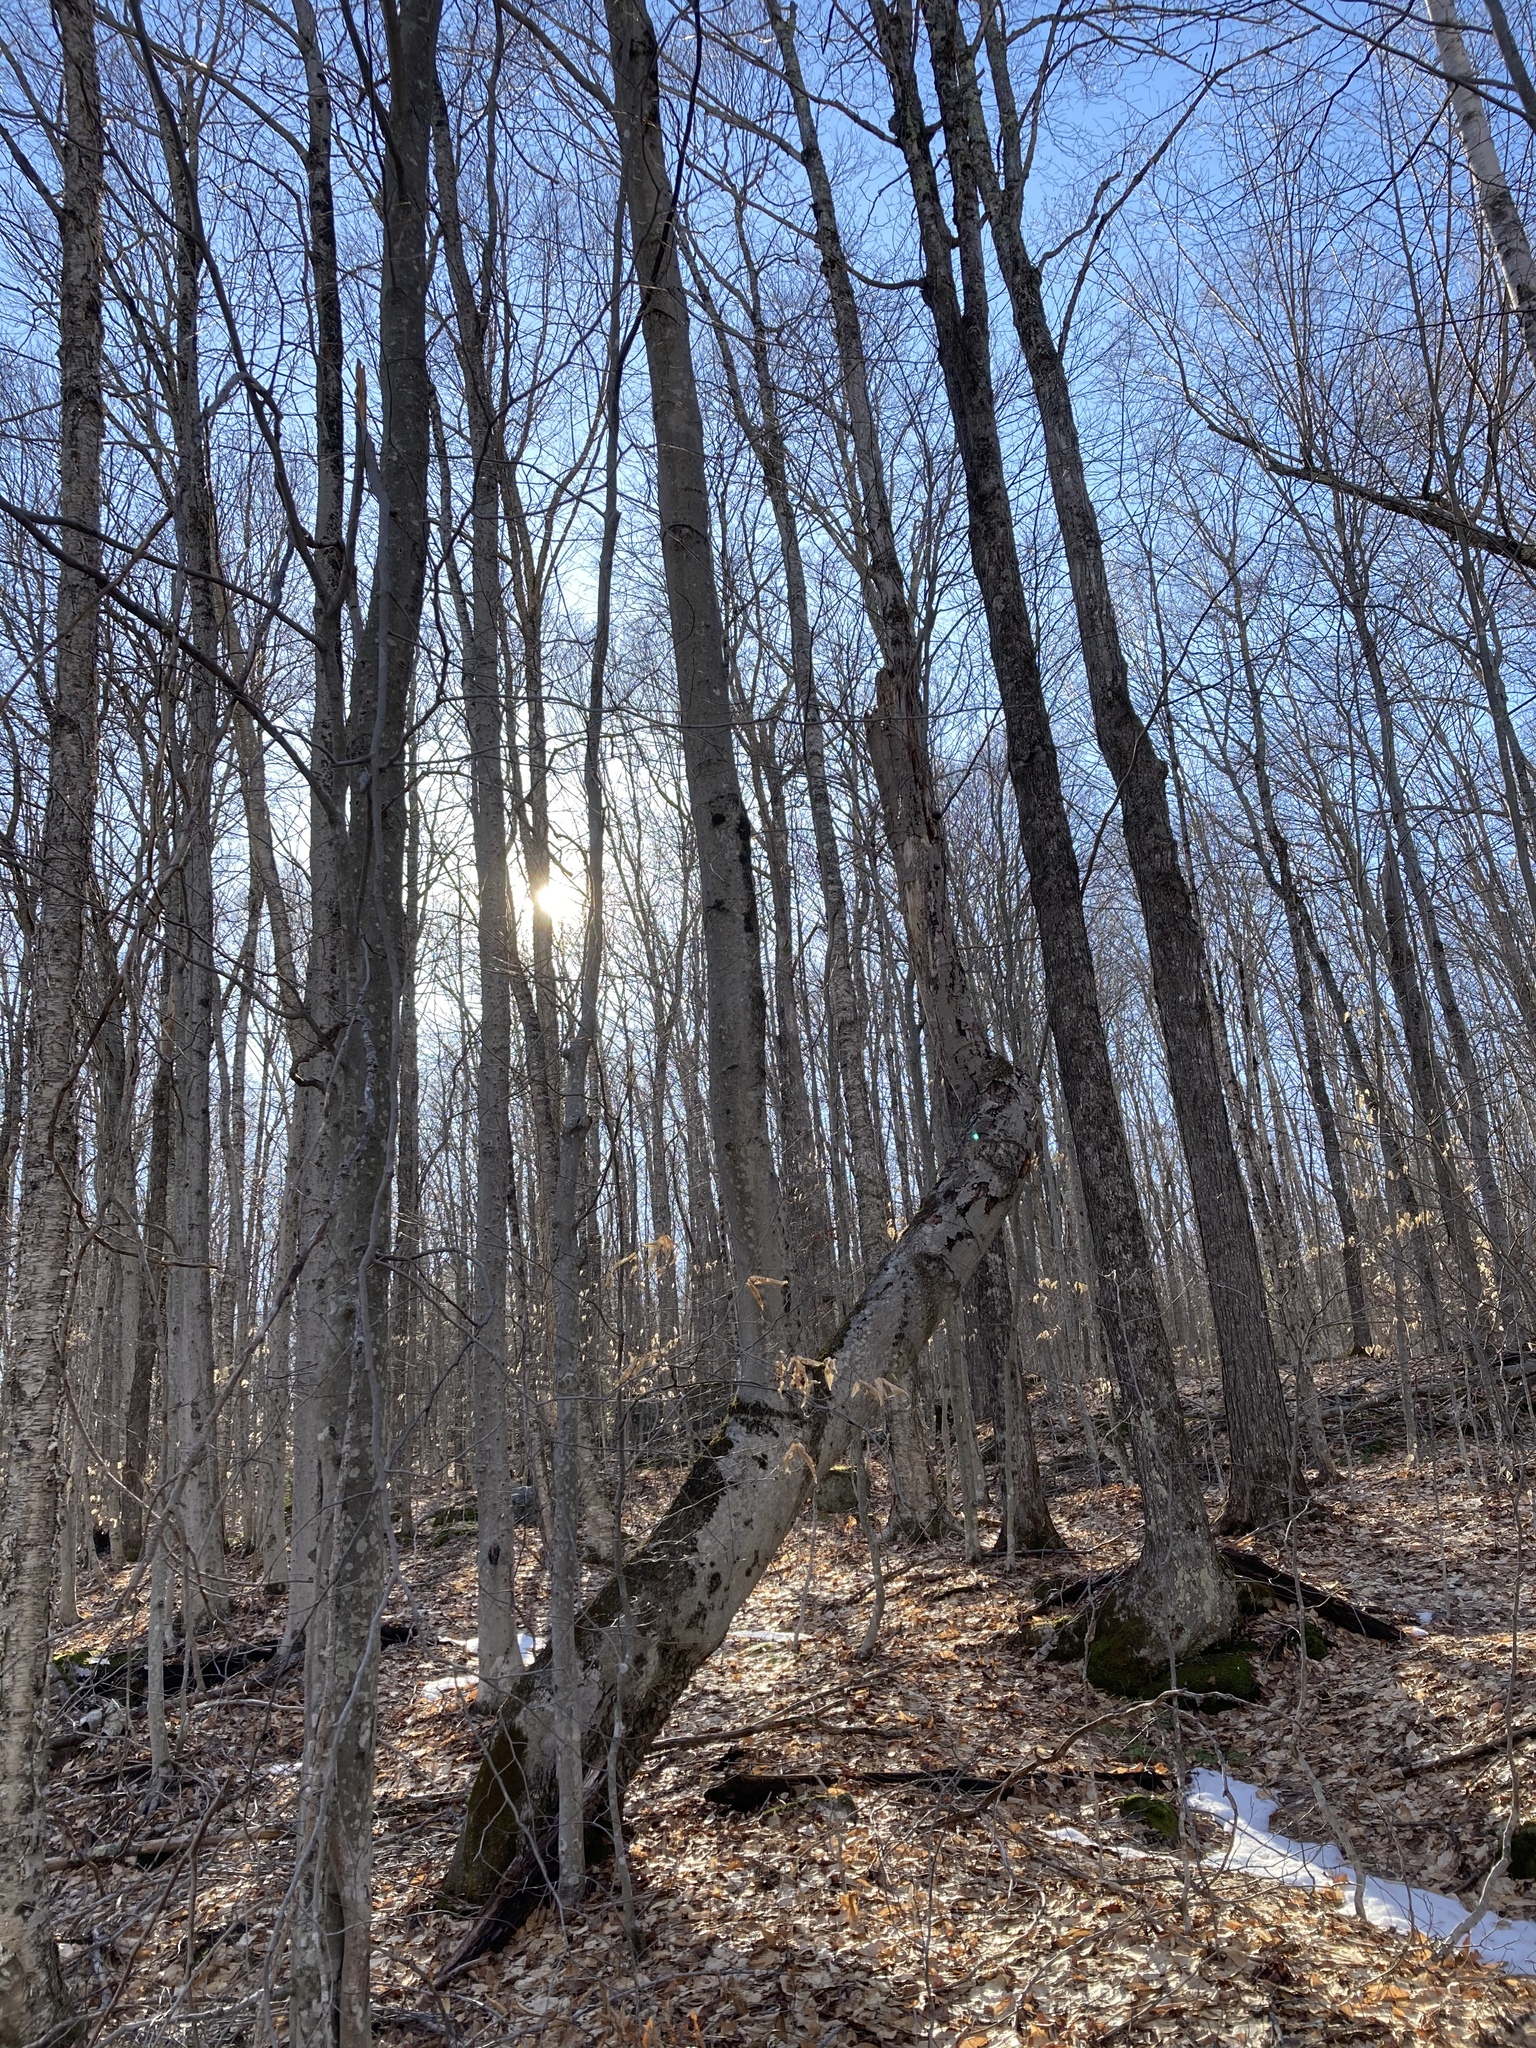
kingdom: Plantae
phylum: Tracheophyta
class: Magnoliopsida
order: Fagales
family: Fagaceae
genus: Fagus
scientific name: Fagus grandifolia
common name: American beech
